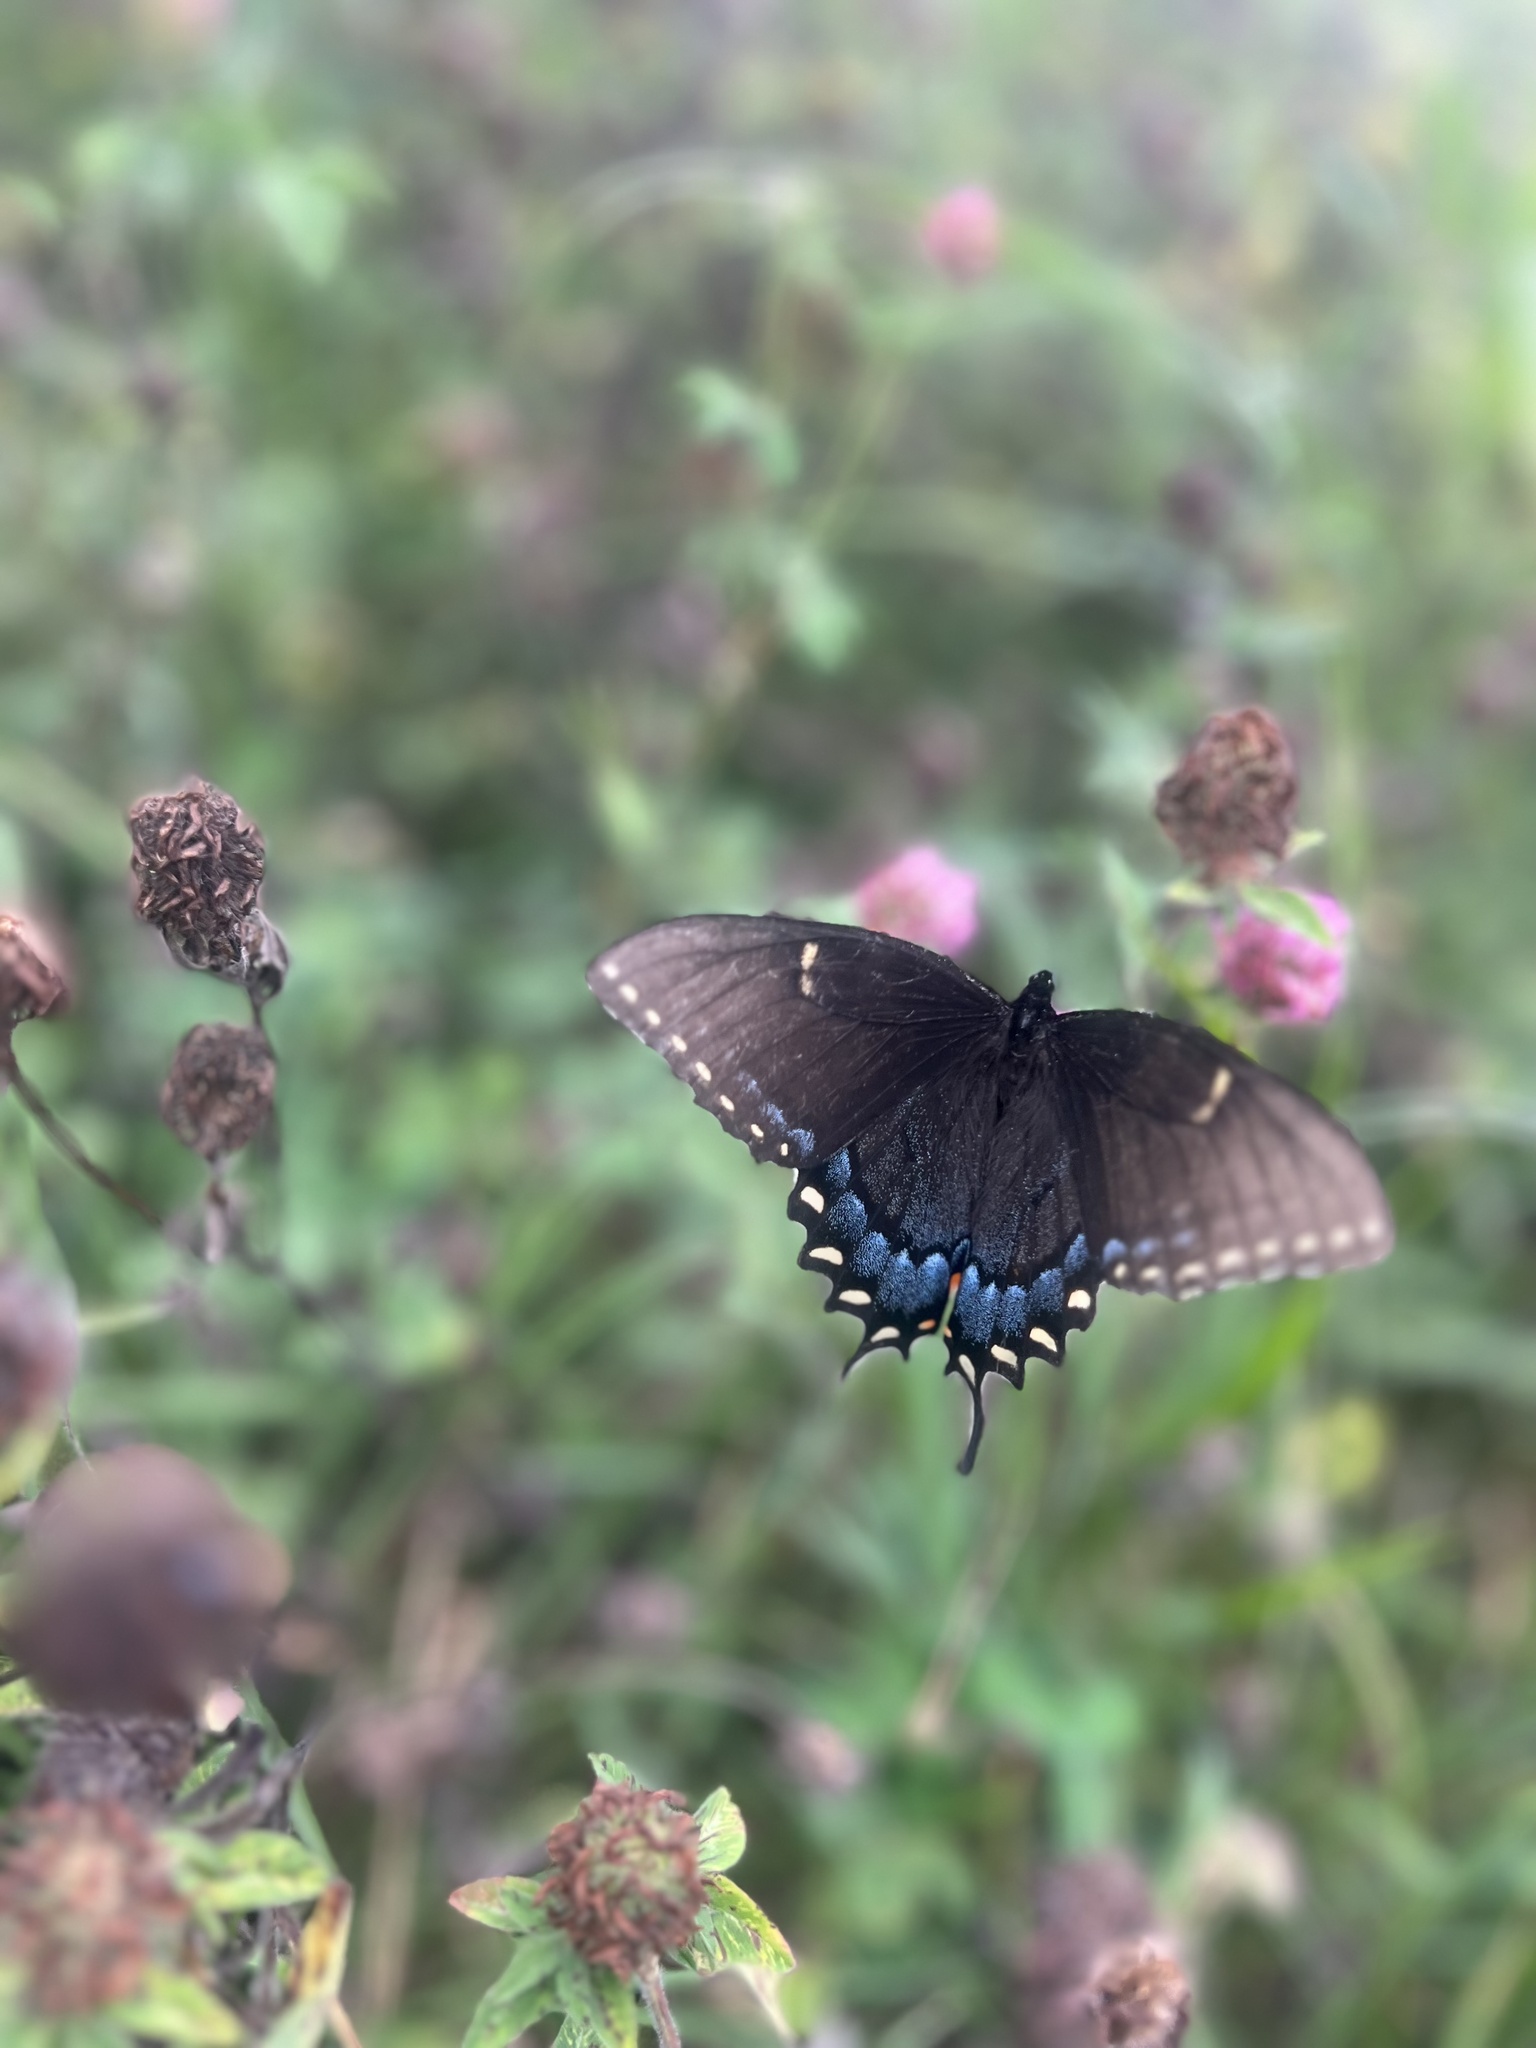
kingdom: Animalia
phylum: Arthropoda
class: Insecta
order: Lepidoptera
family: Papilionidae
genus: Papilio
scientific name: Papilio glaucus
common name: Tiger swallowtail
